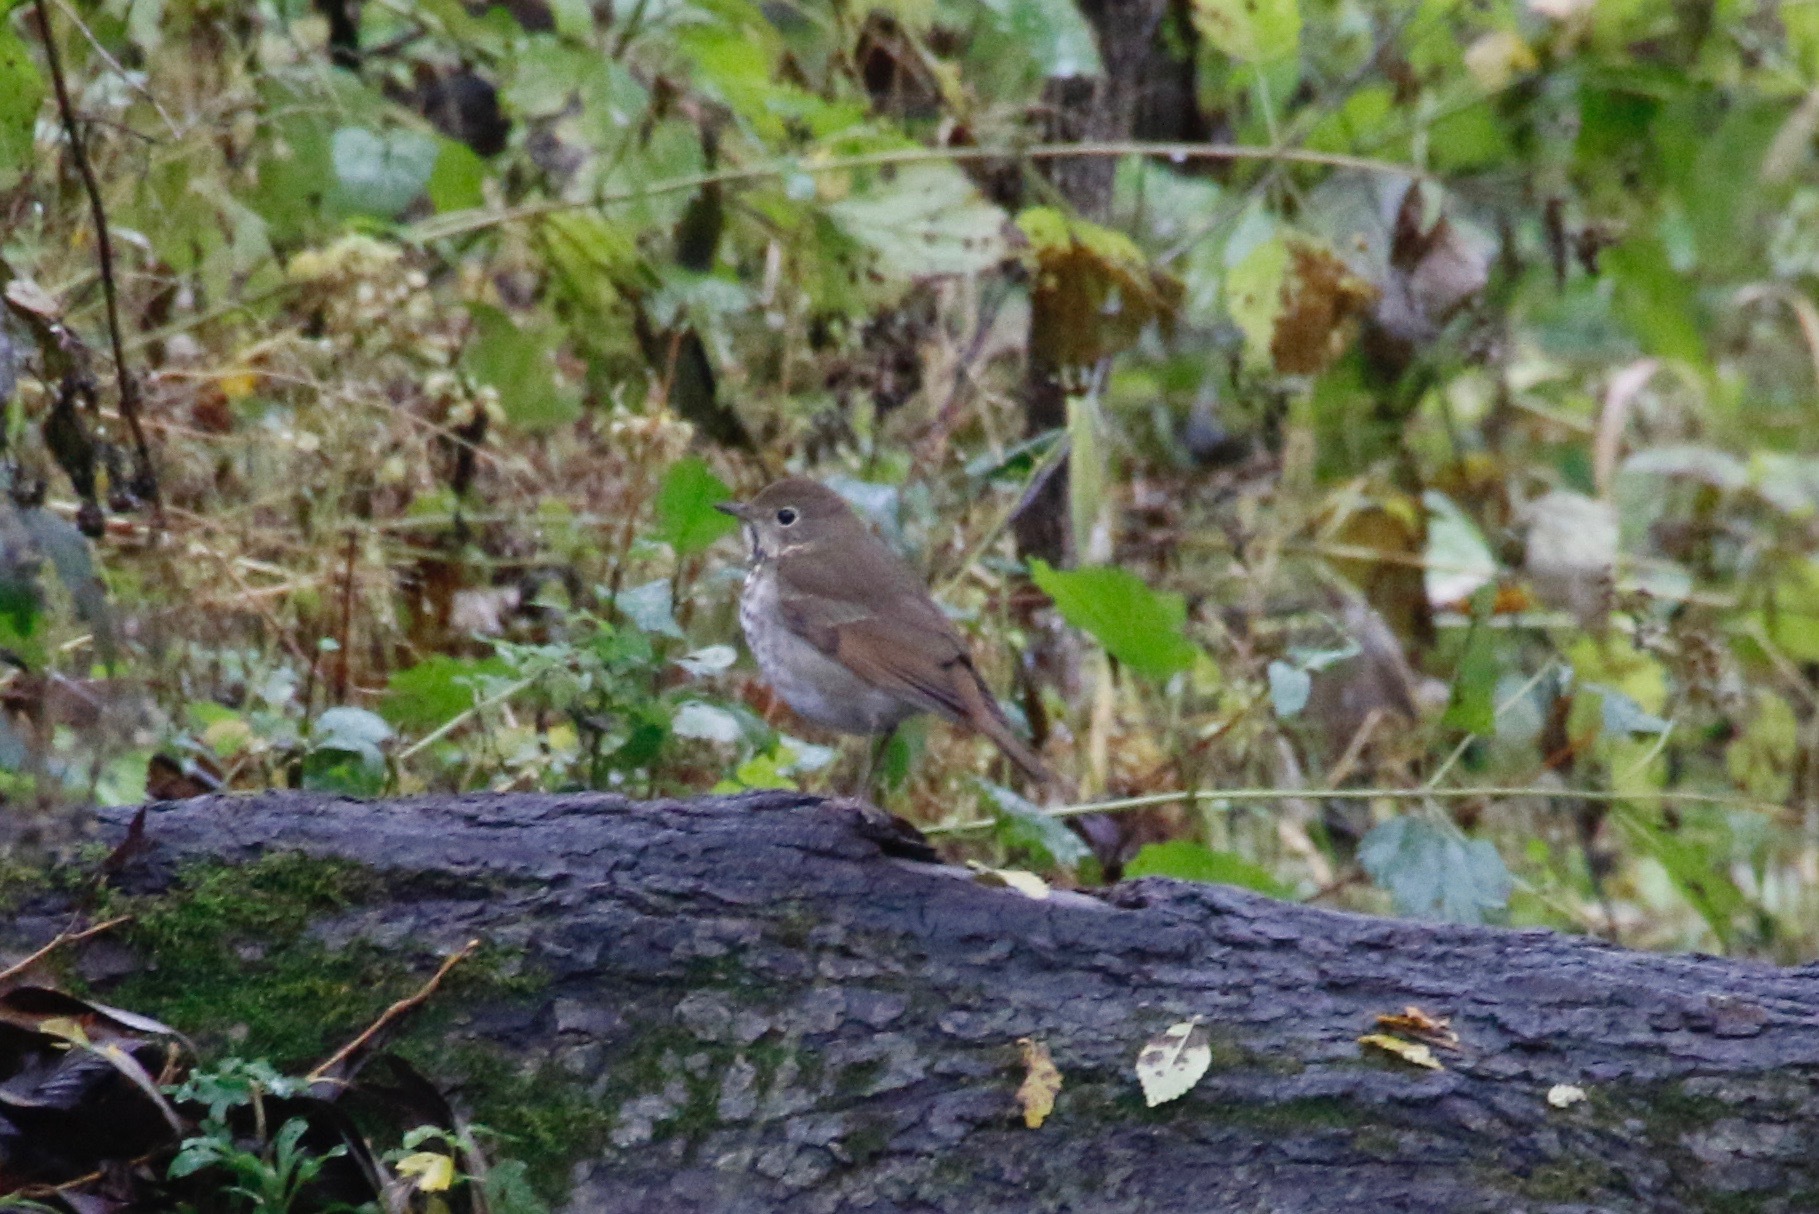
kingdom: Animalia
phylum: Chordata
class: Aves
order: Passeriformes
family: Turdidae
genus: Catharus
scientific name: Catharus guttatus
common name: Hermit thrush
